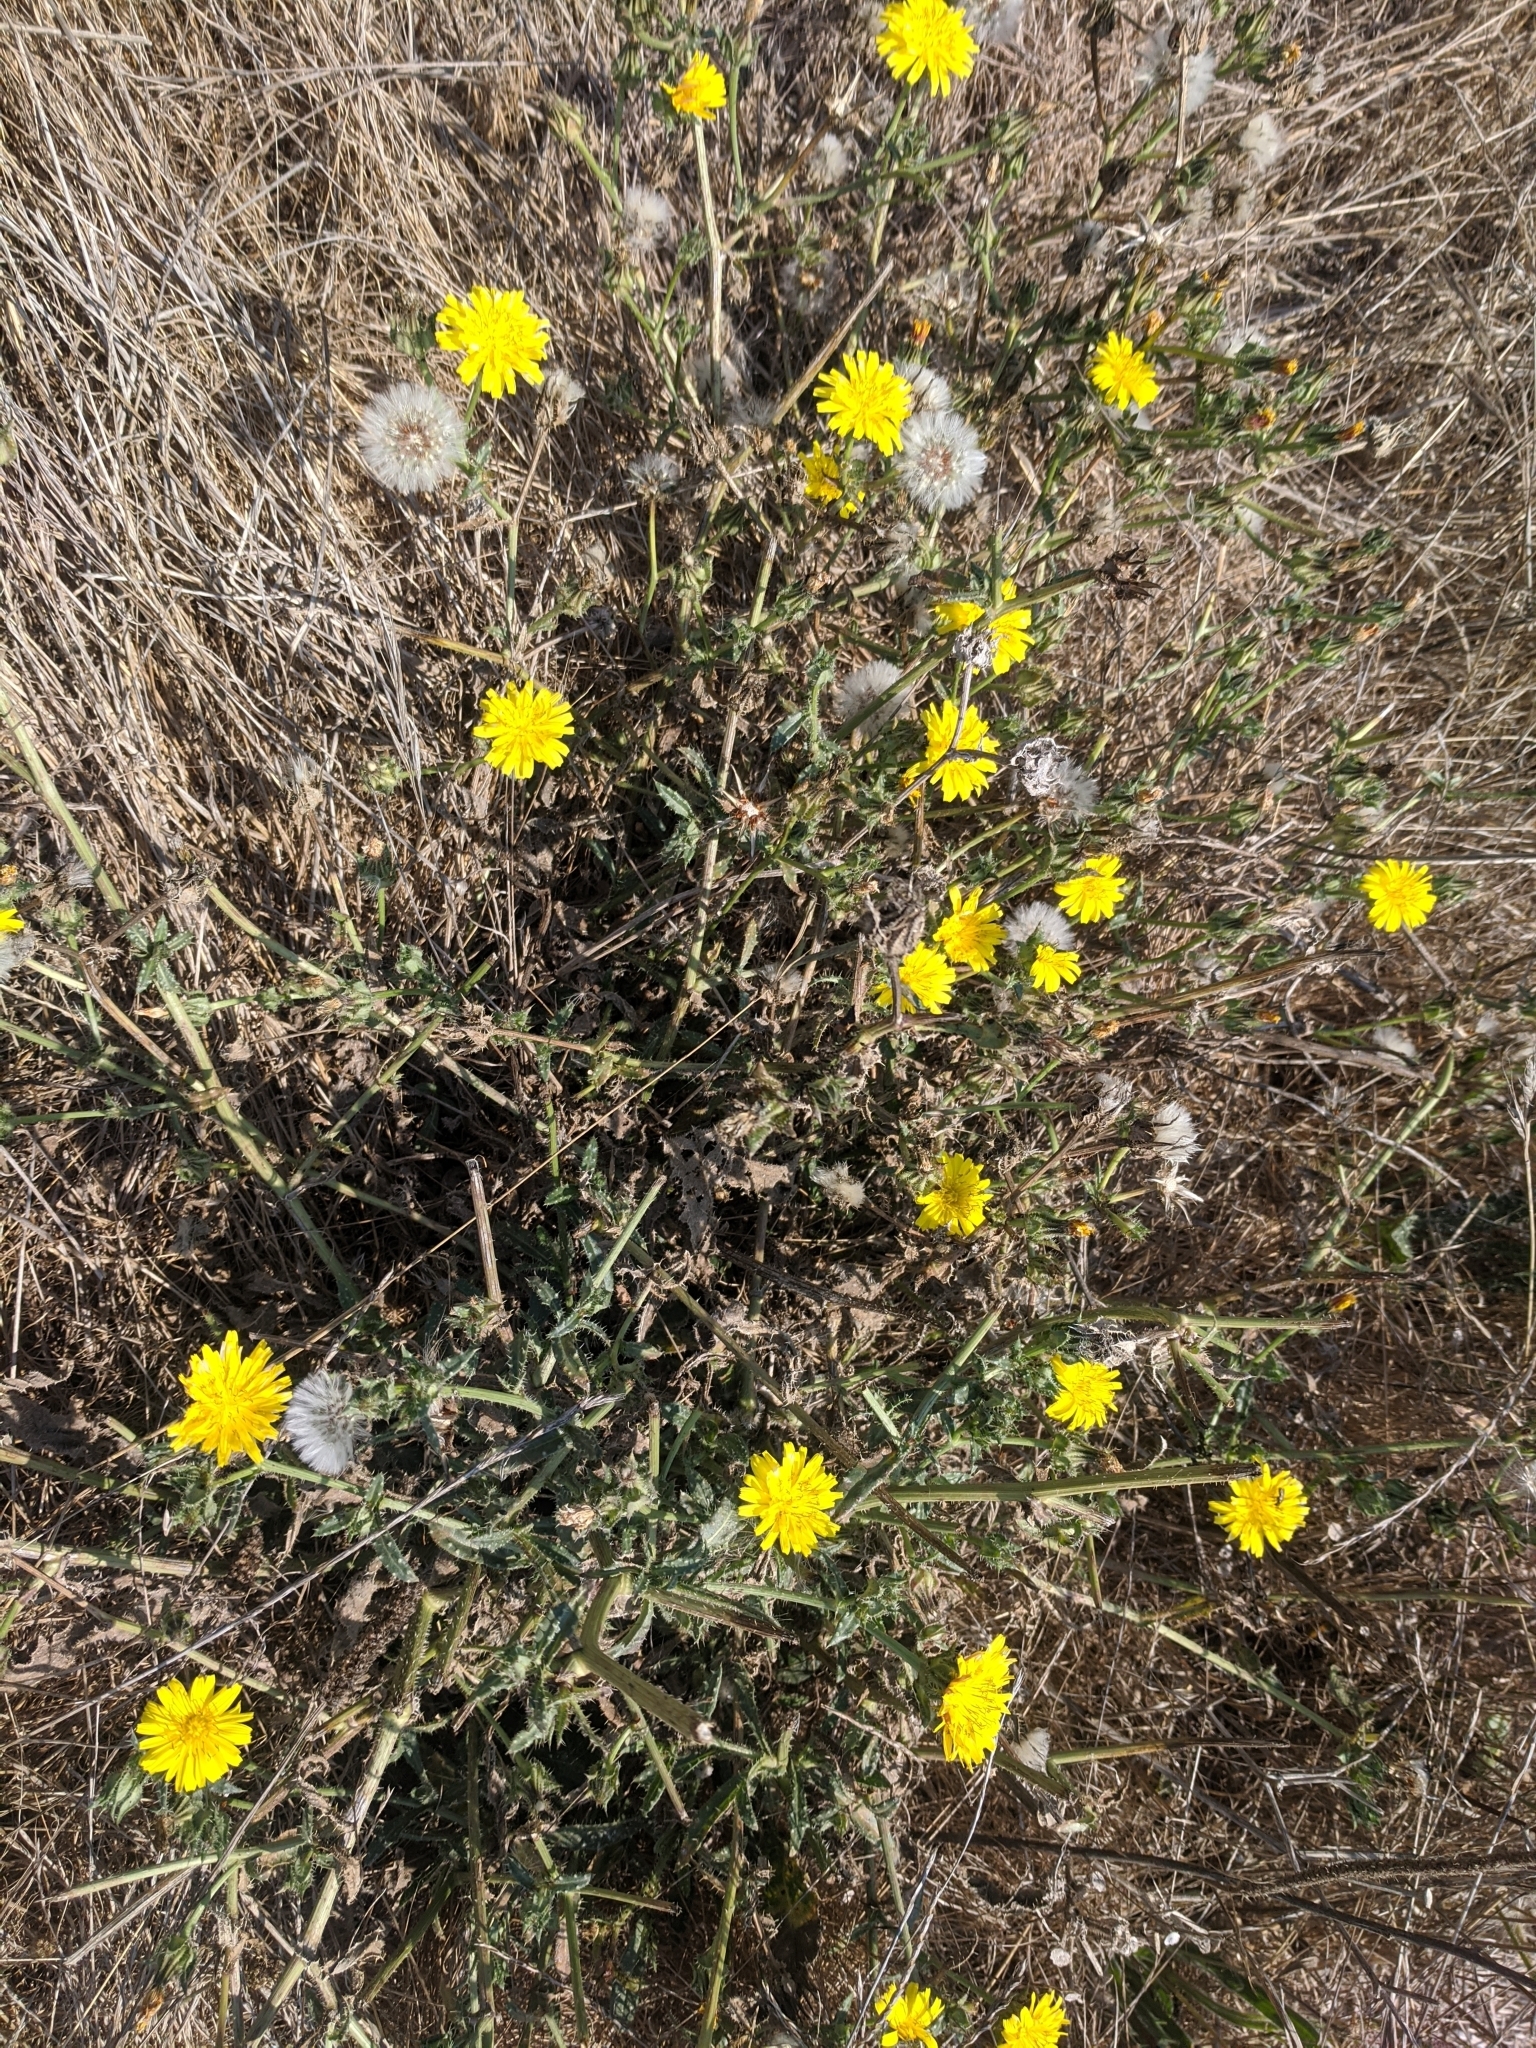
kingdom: Plantae
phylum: Tracheophyta
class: Magnoliopsida
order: Asterales
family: Asteraceae
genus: Helminthotheca
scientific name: Helminthotheca echioides
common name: Ox-tongue
